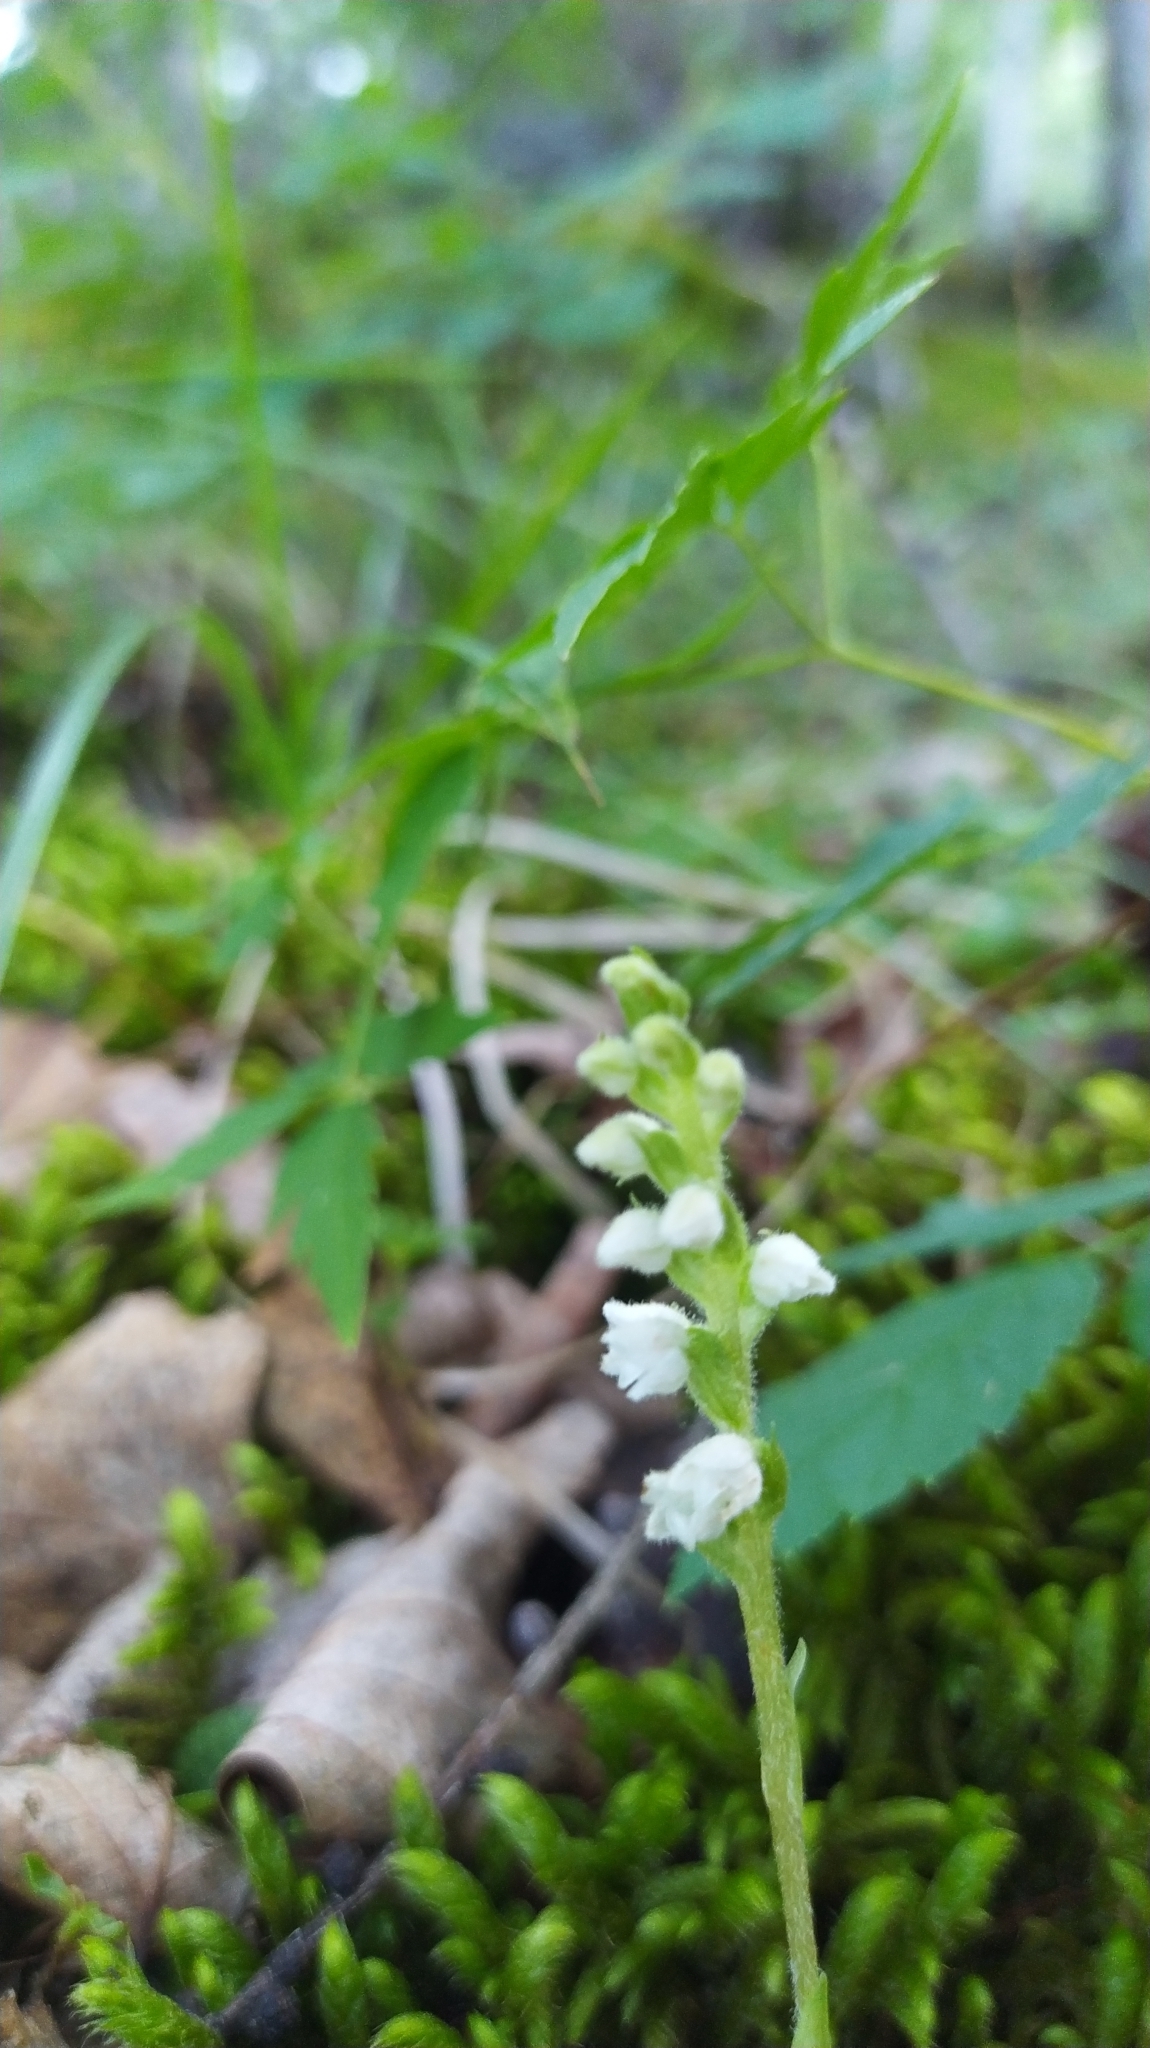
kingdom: Plantae
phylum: Tracheophyta
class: Liliopsida
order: Asparagales
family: Orchidaceae
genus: Goodyera
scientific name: Goodyera repens
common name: Creeping lady's-tresses
